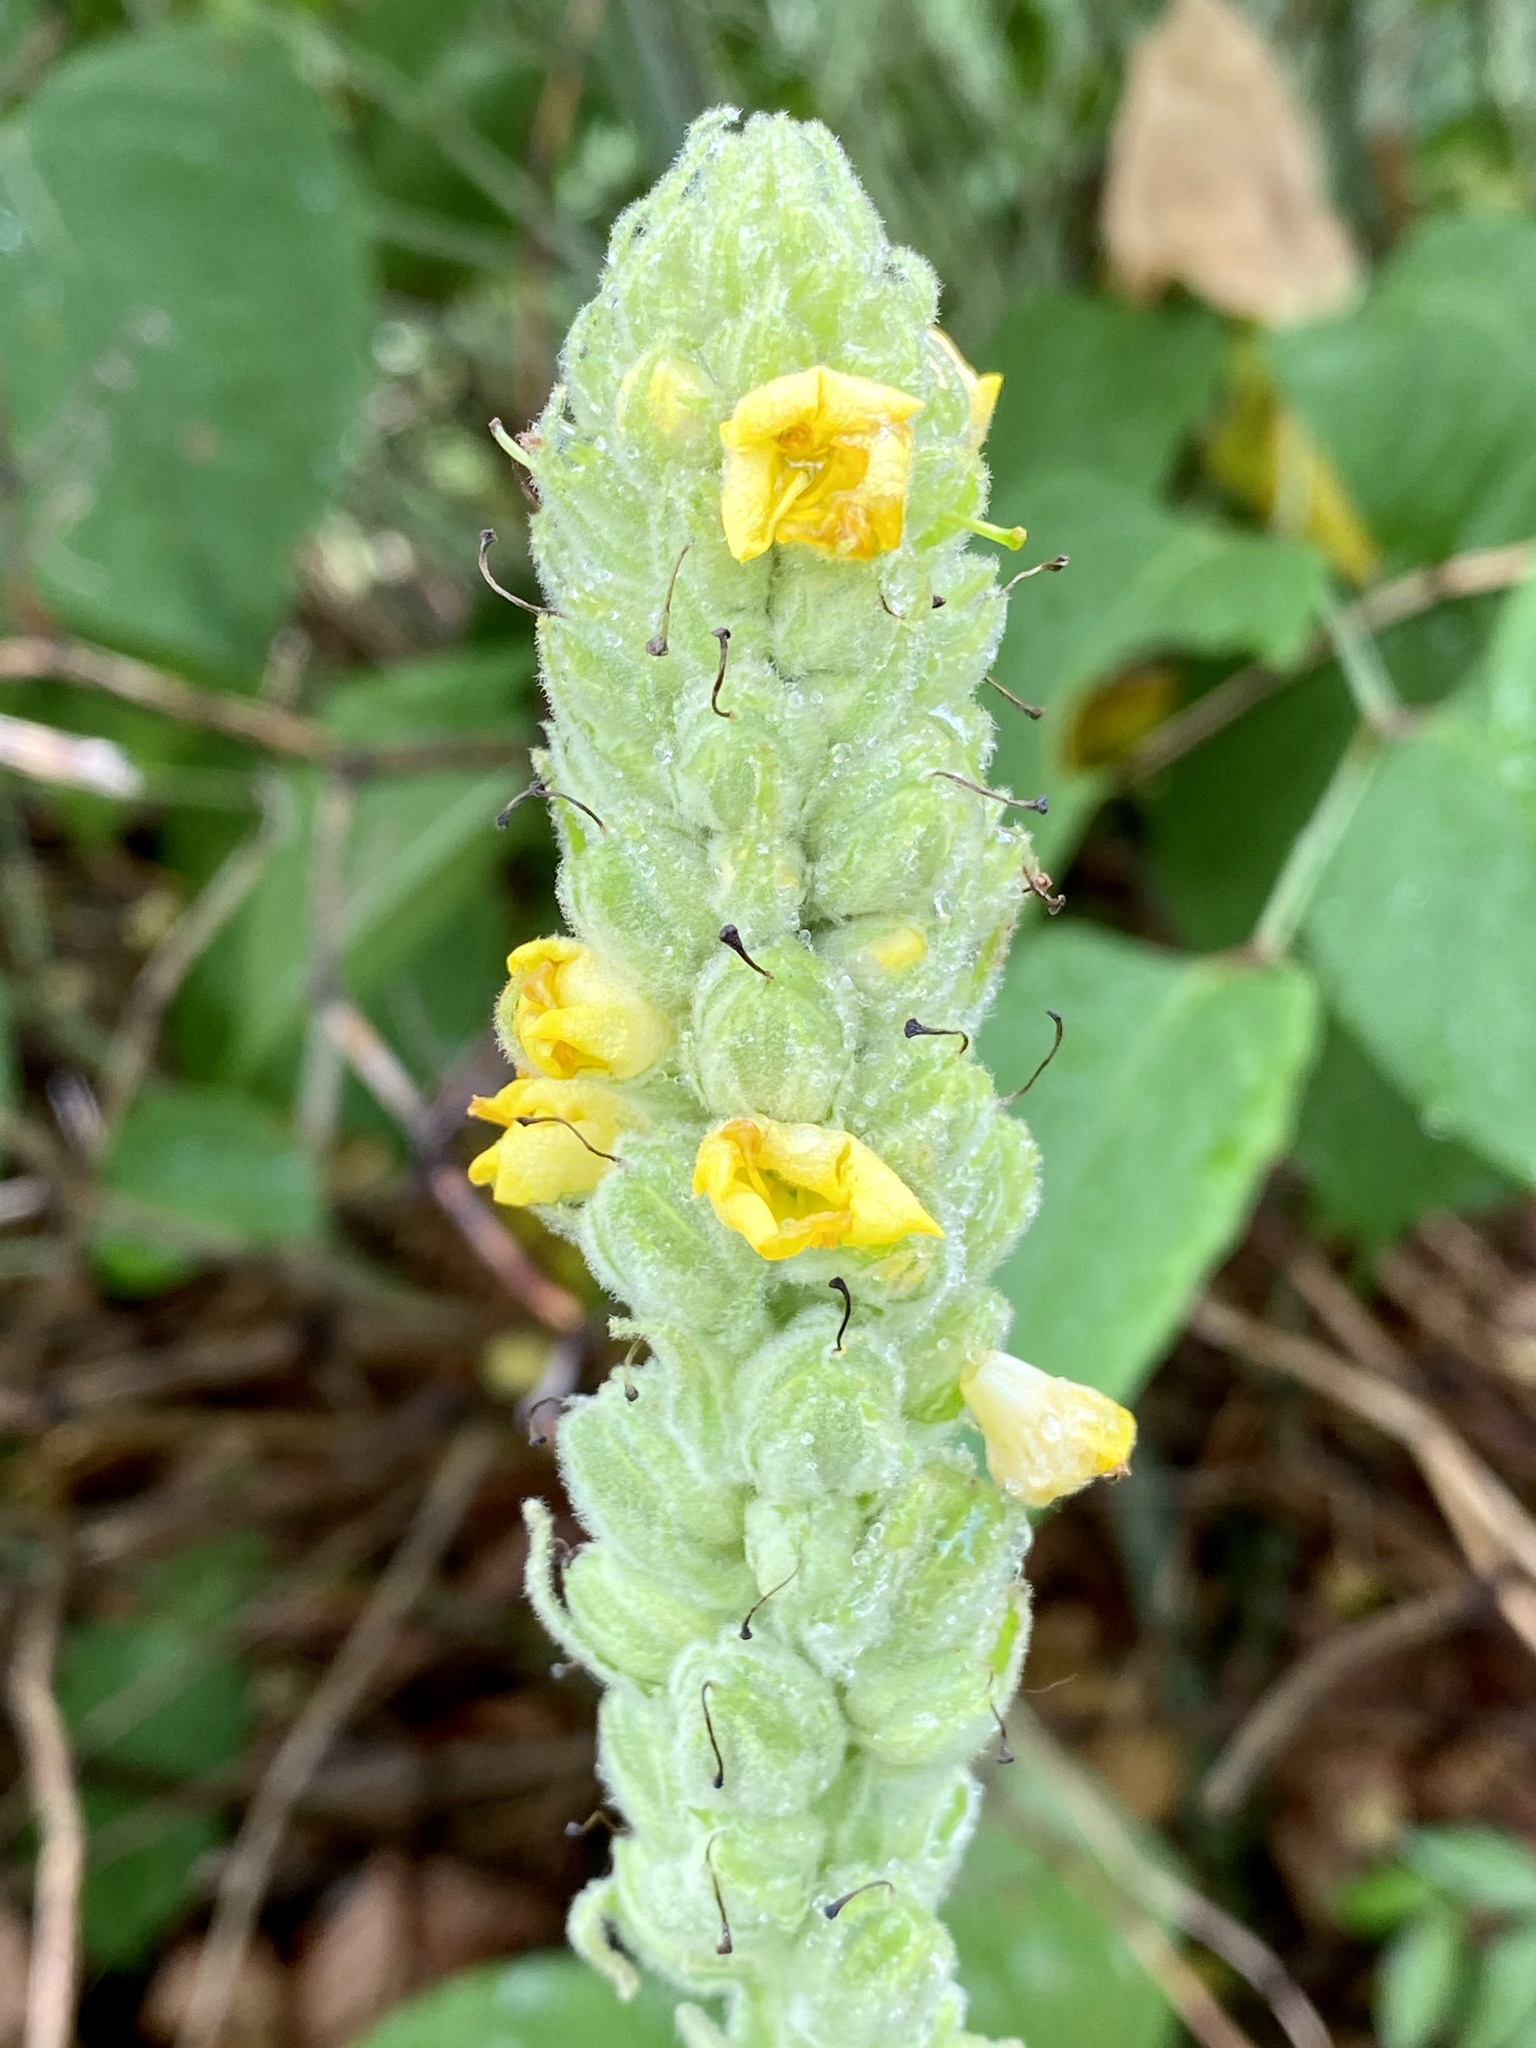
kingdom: Plantae
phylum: Tracheophyta
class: Magnoliopsida
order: Lamiales
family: Scrophulariaceae
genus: Verbascum
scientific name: Verbascum thapsus
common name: Common mullein
